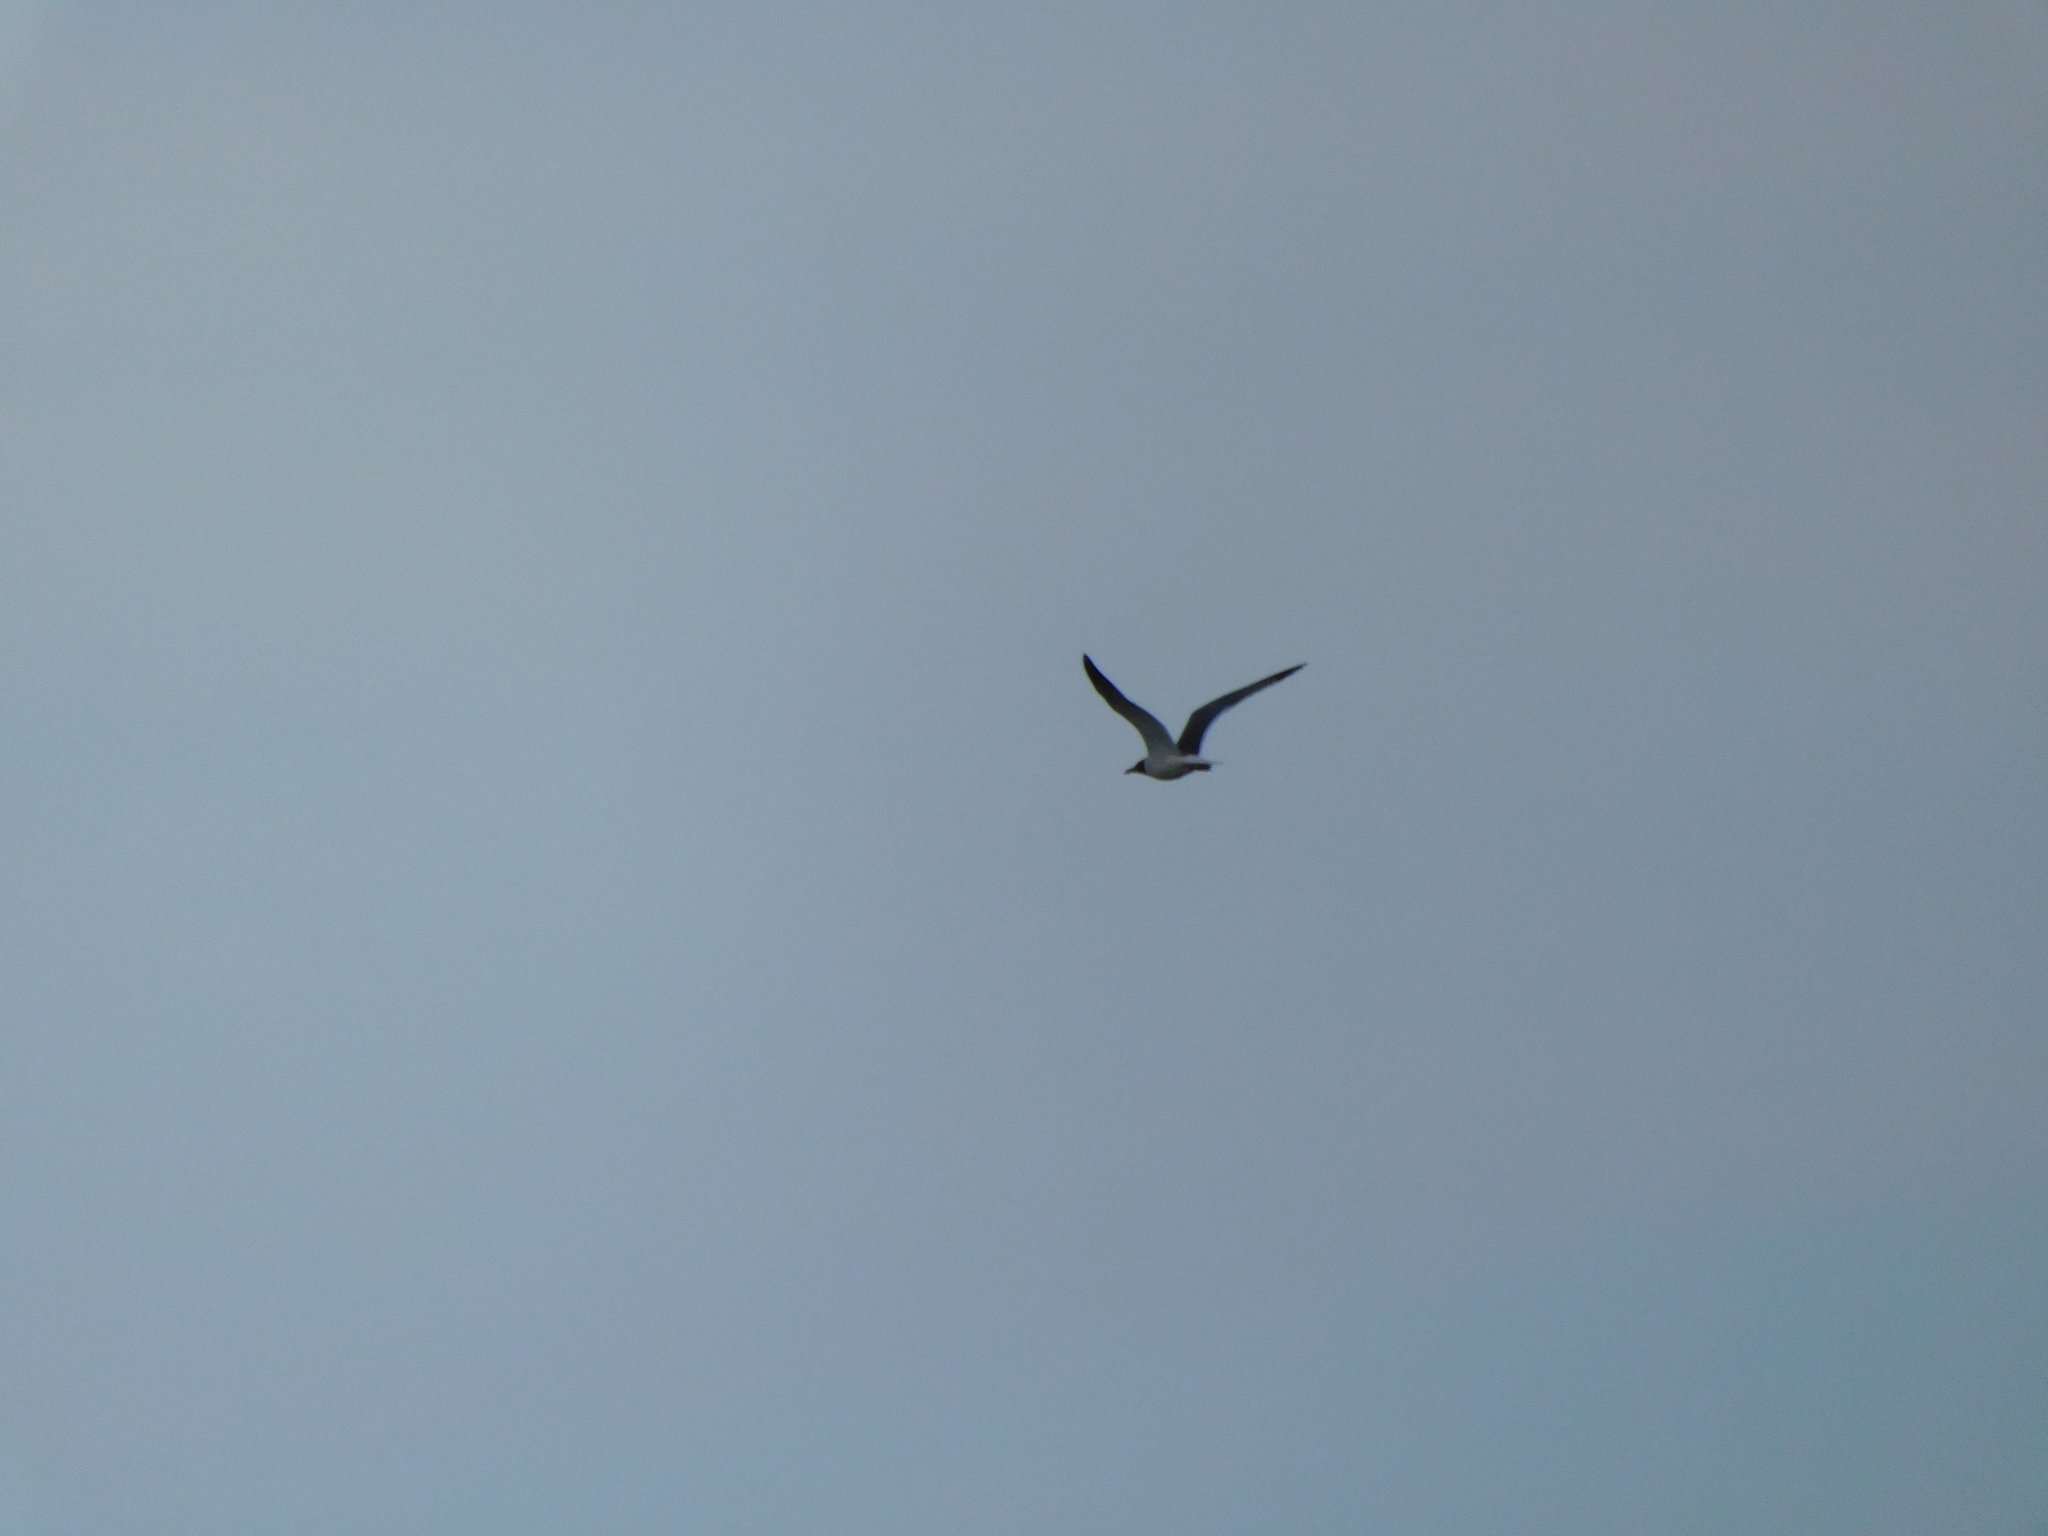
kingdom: Animalia
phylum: Chordata
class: Aves
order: Charadriiformes
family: Laridae
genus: Leucophaeus
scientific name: Leucophaeus atricilla
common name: Laughing gull
